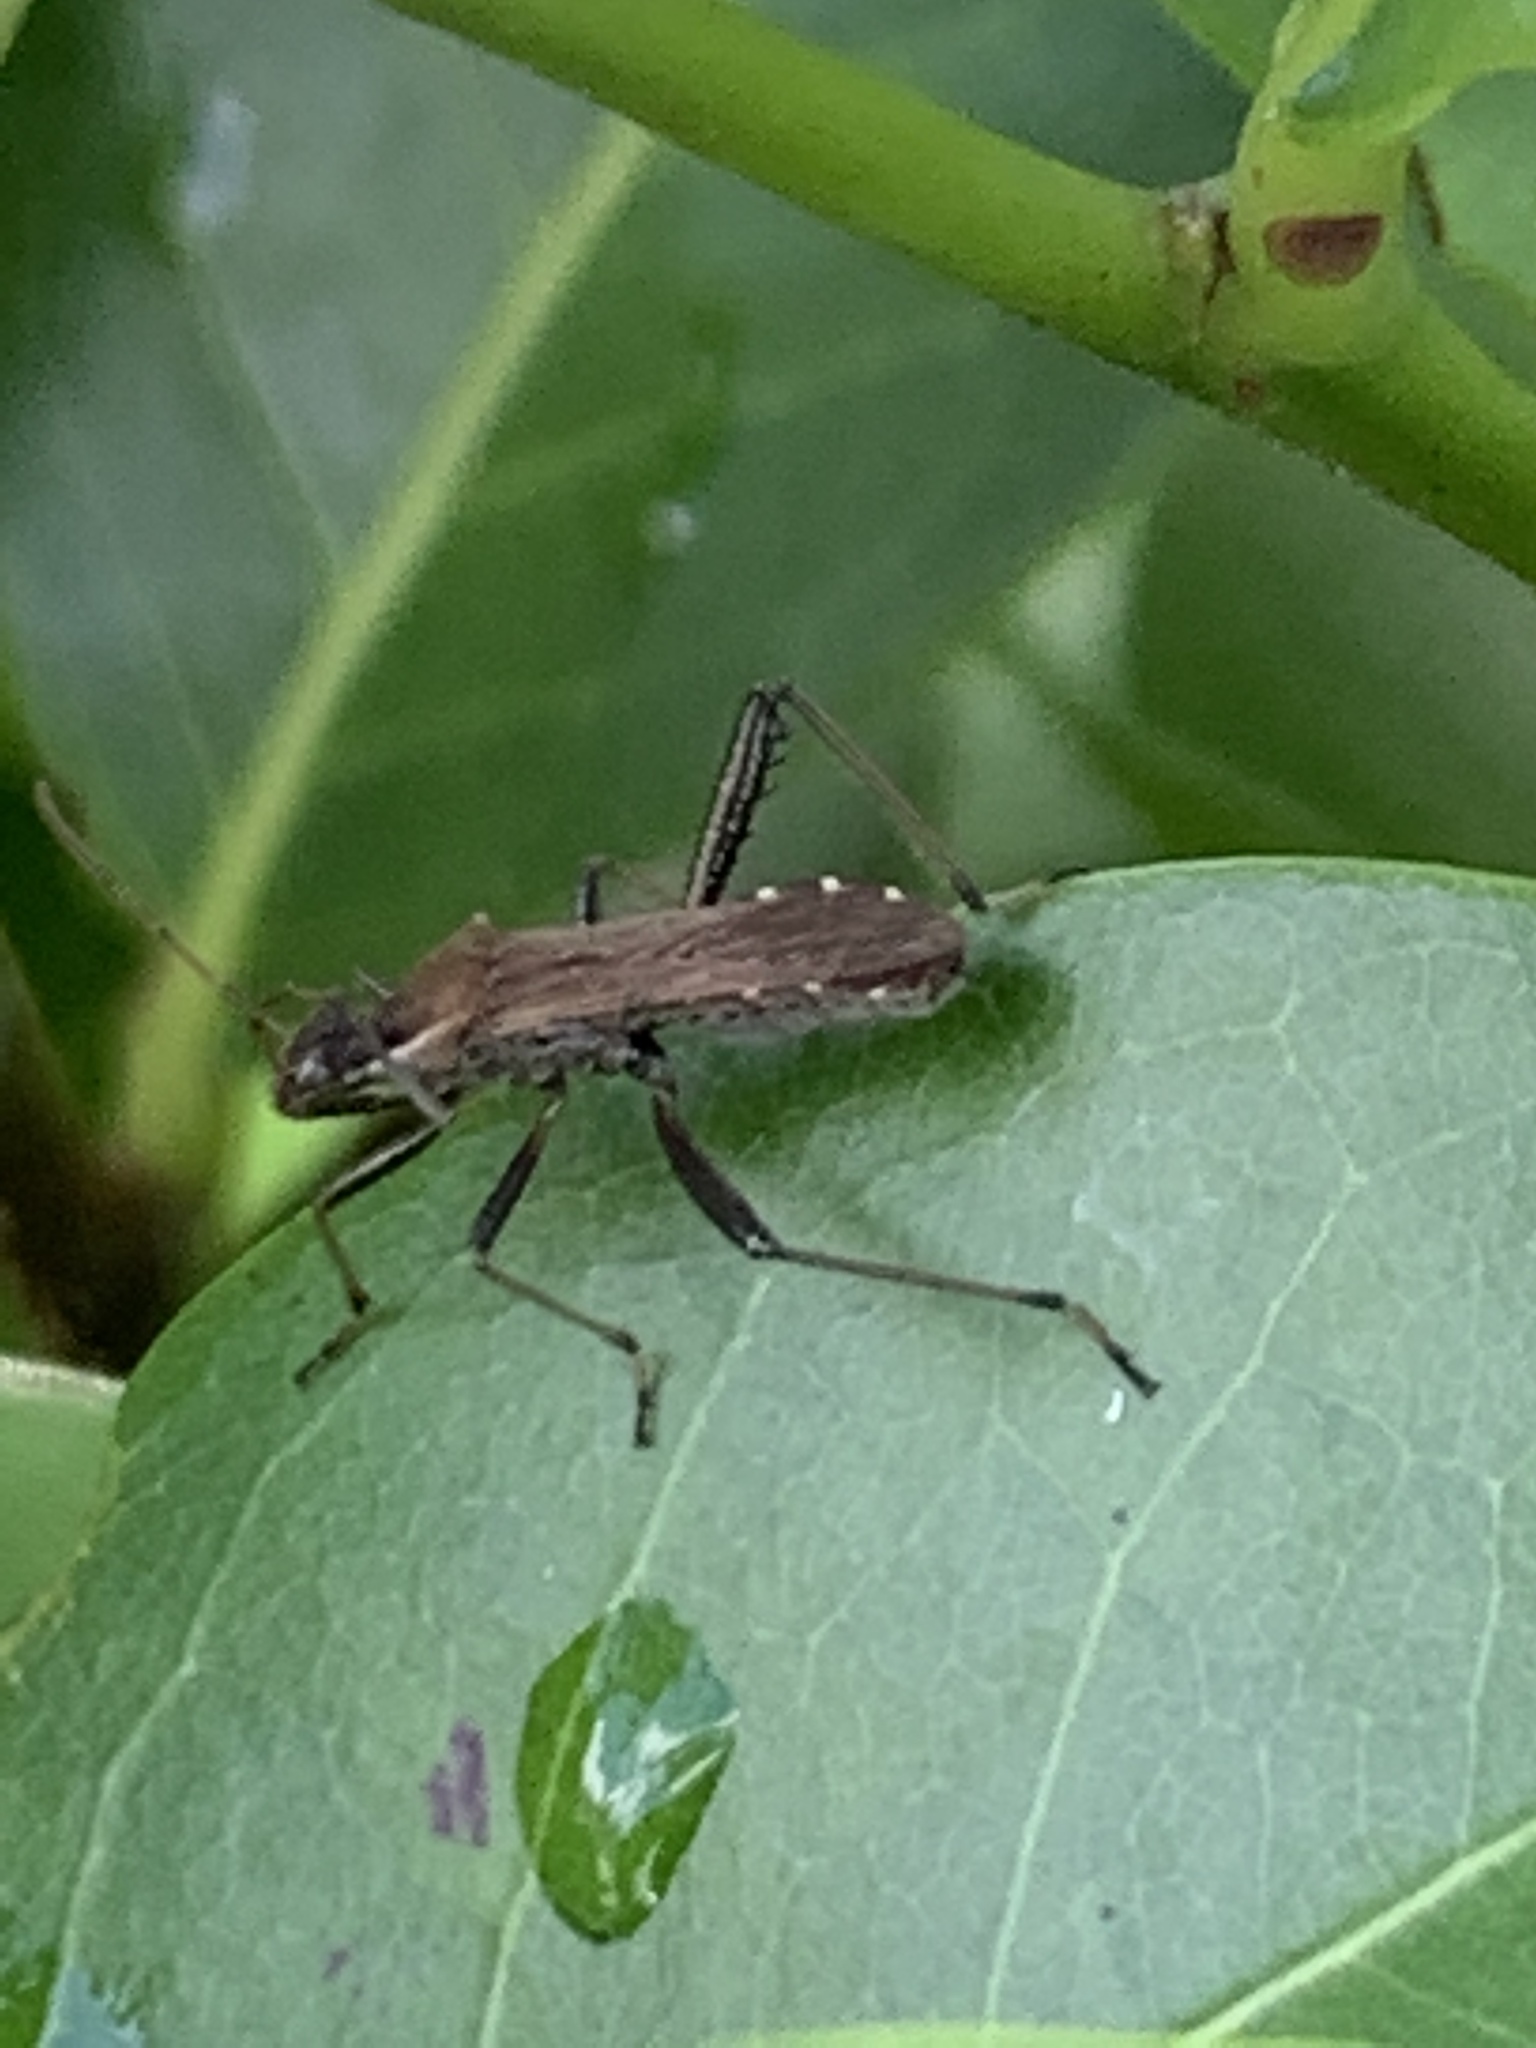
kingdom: Animalia
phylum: Arthropoda
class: Insecta
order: Hemiptera
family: Alydidae
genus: Alydus
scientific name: Alydus pilosulus
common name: Broad-headed bug
